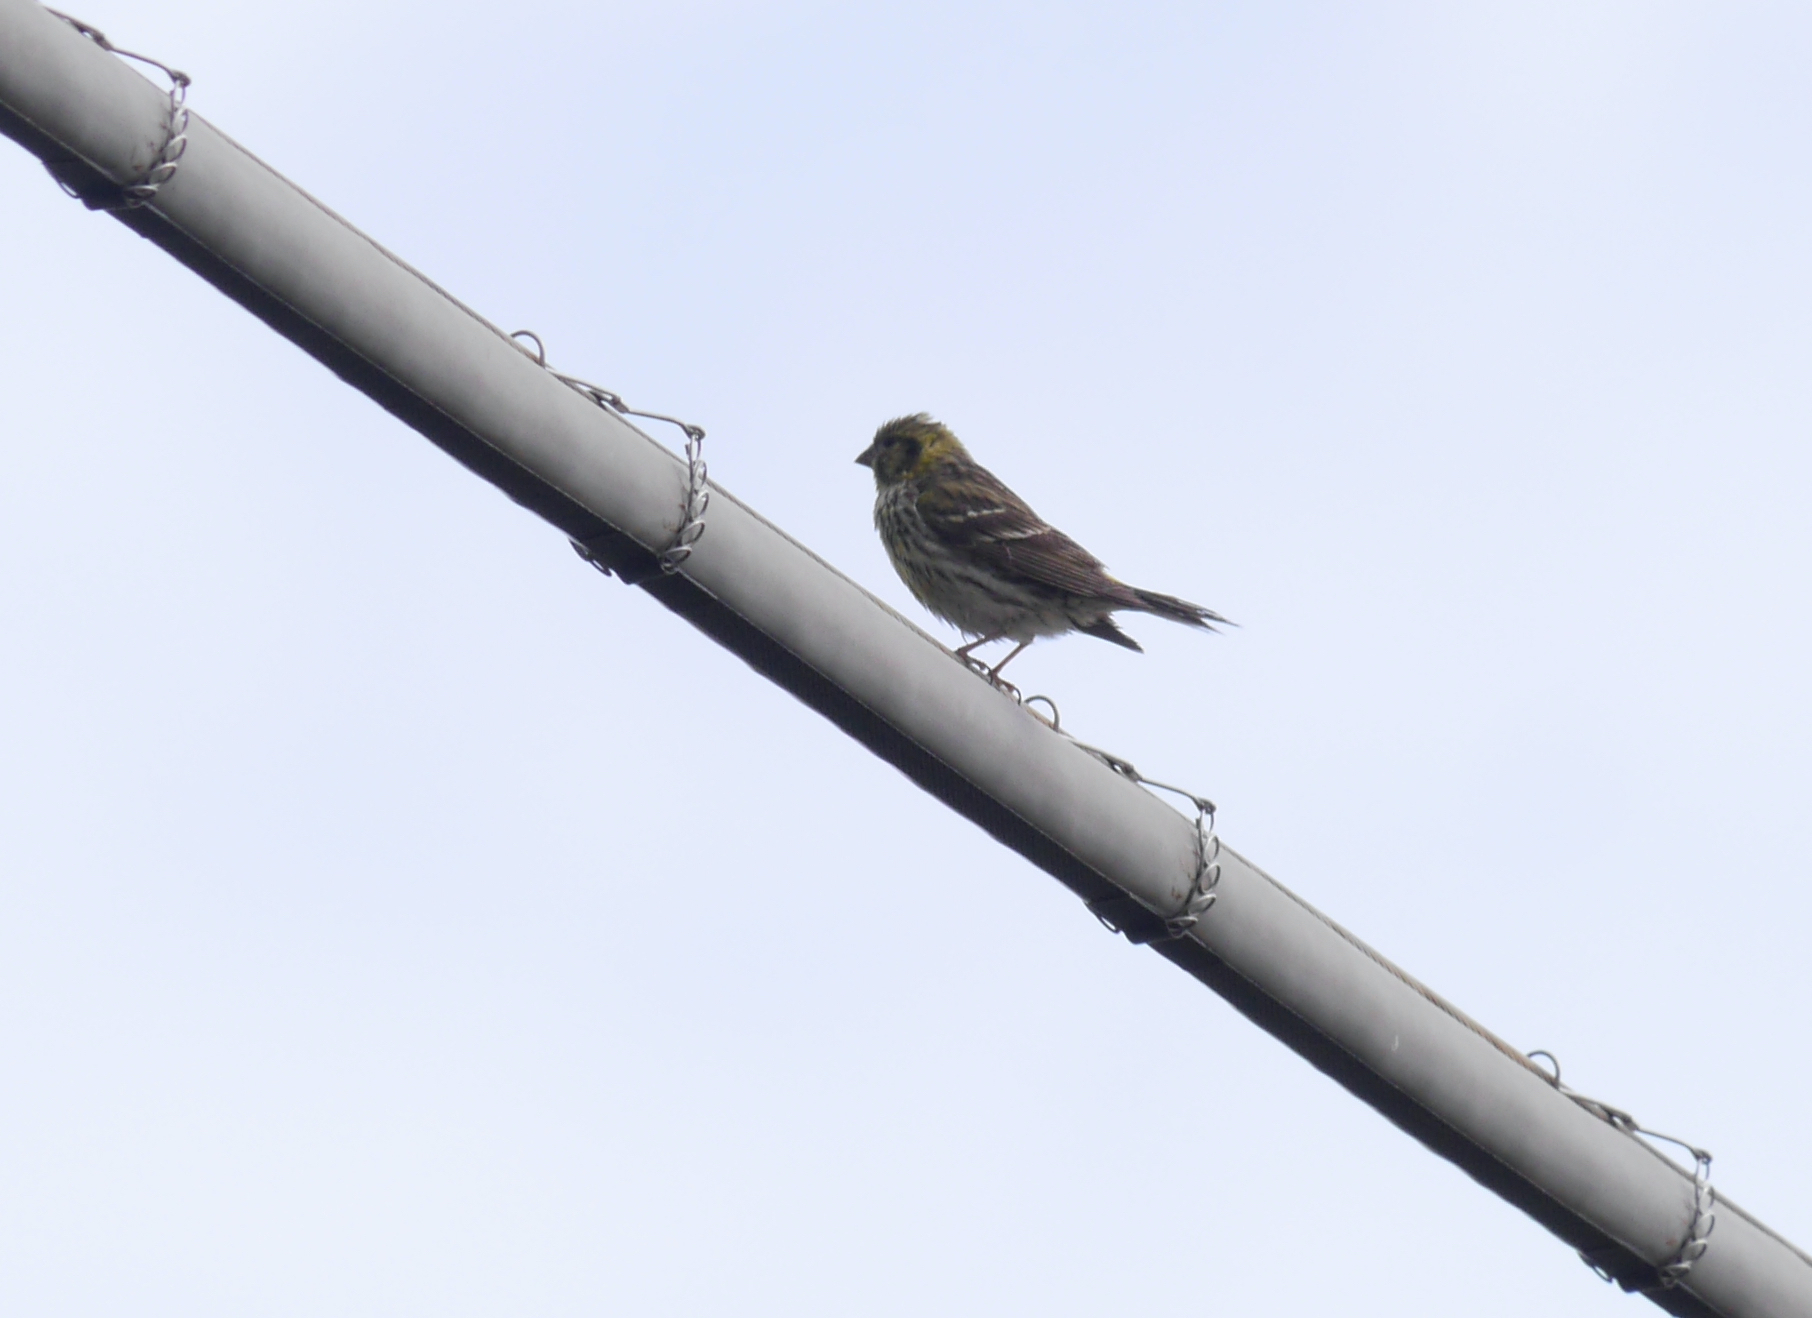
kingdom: Animalia
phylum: Chordata
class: Aves
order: Passeriformes
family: Fringillidae
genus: Serinus
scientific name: Serinus serinus
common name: European serin
